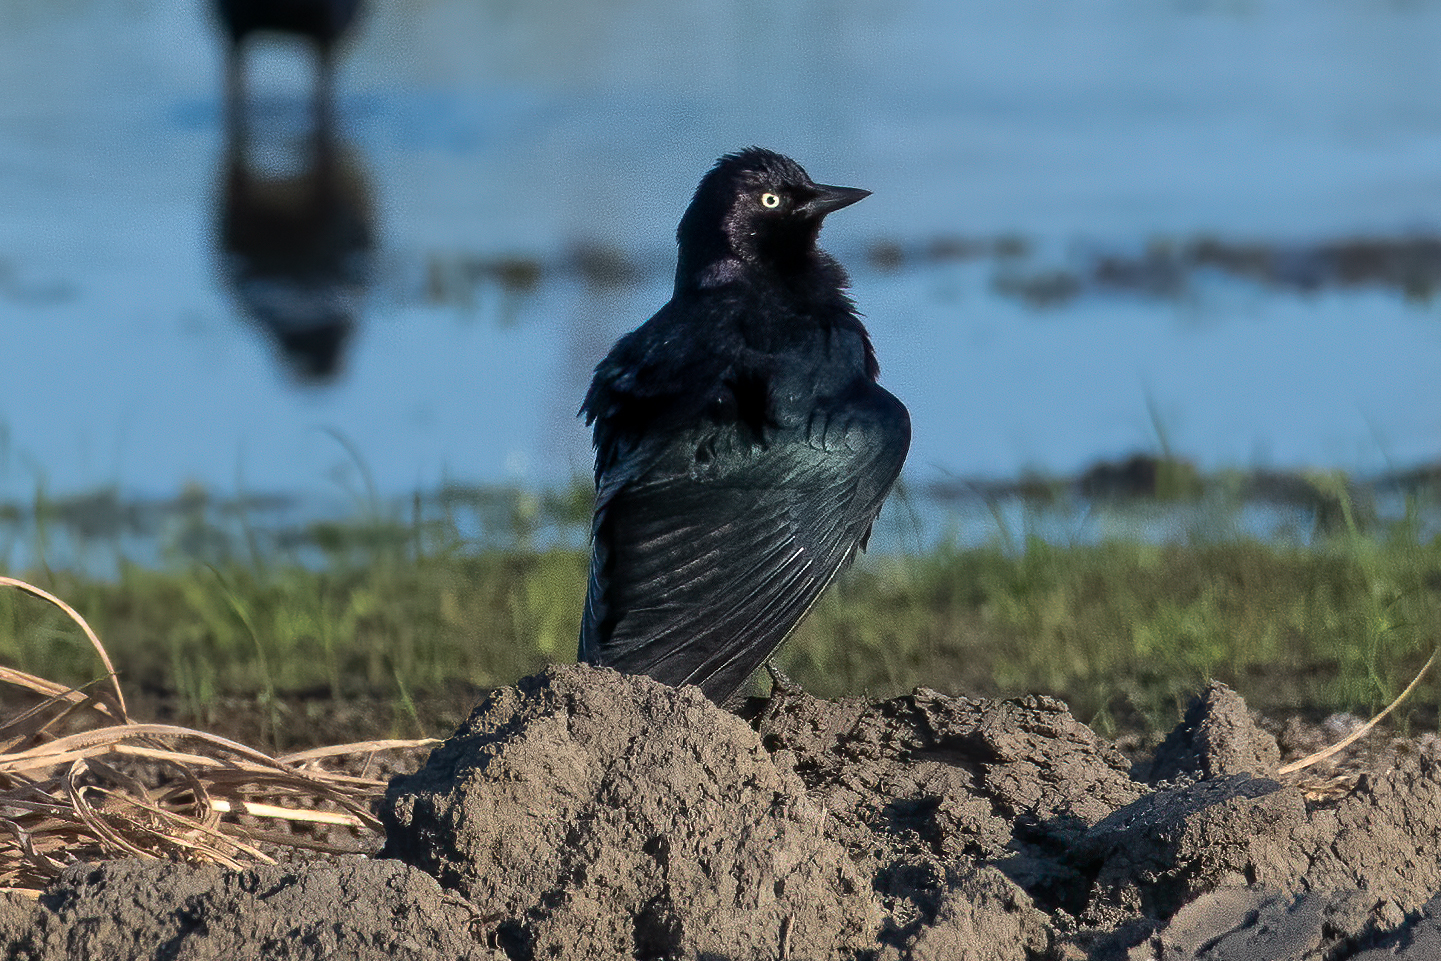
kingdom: Animalia
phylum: Chordata
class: Aves
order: Passeriformes
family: Icteridae
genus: Euphagus
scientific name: Euphagus cyanocephalus
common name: Brewer's blackbird
